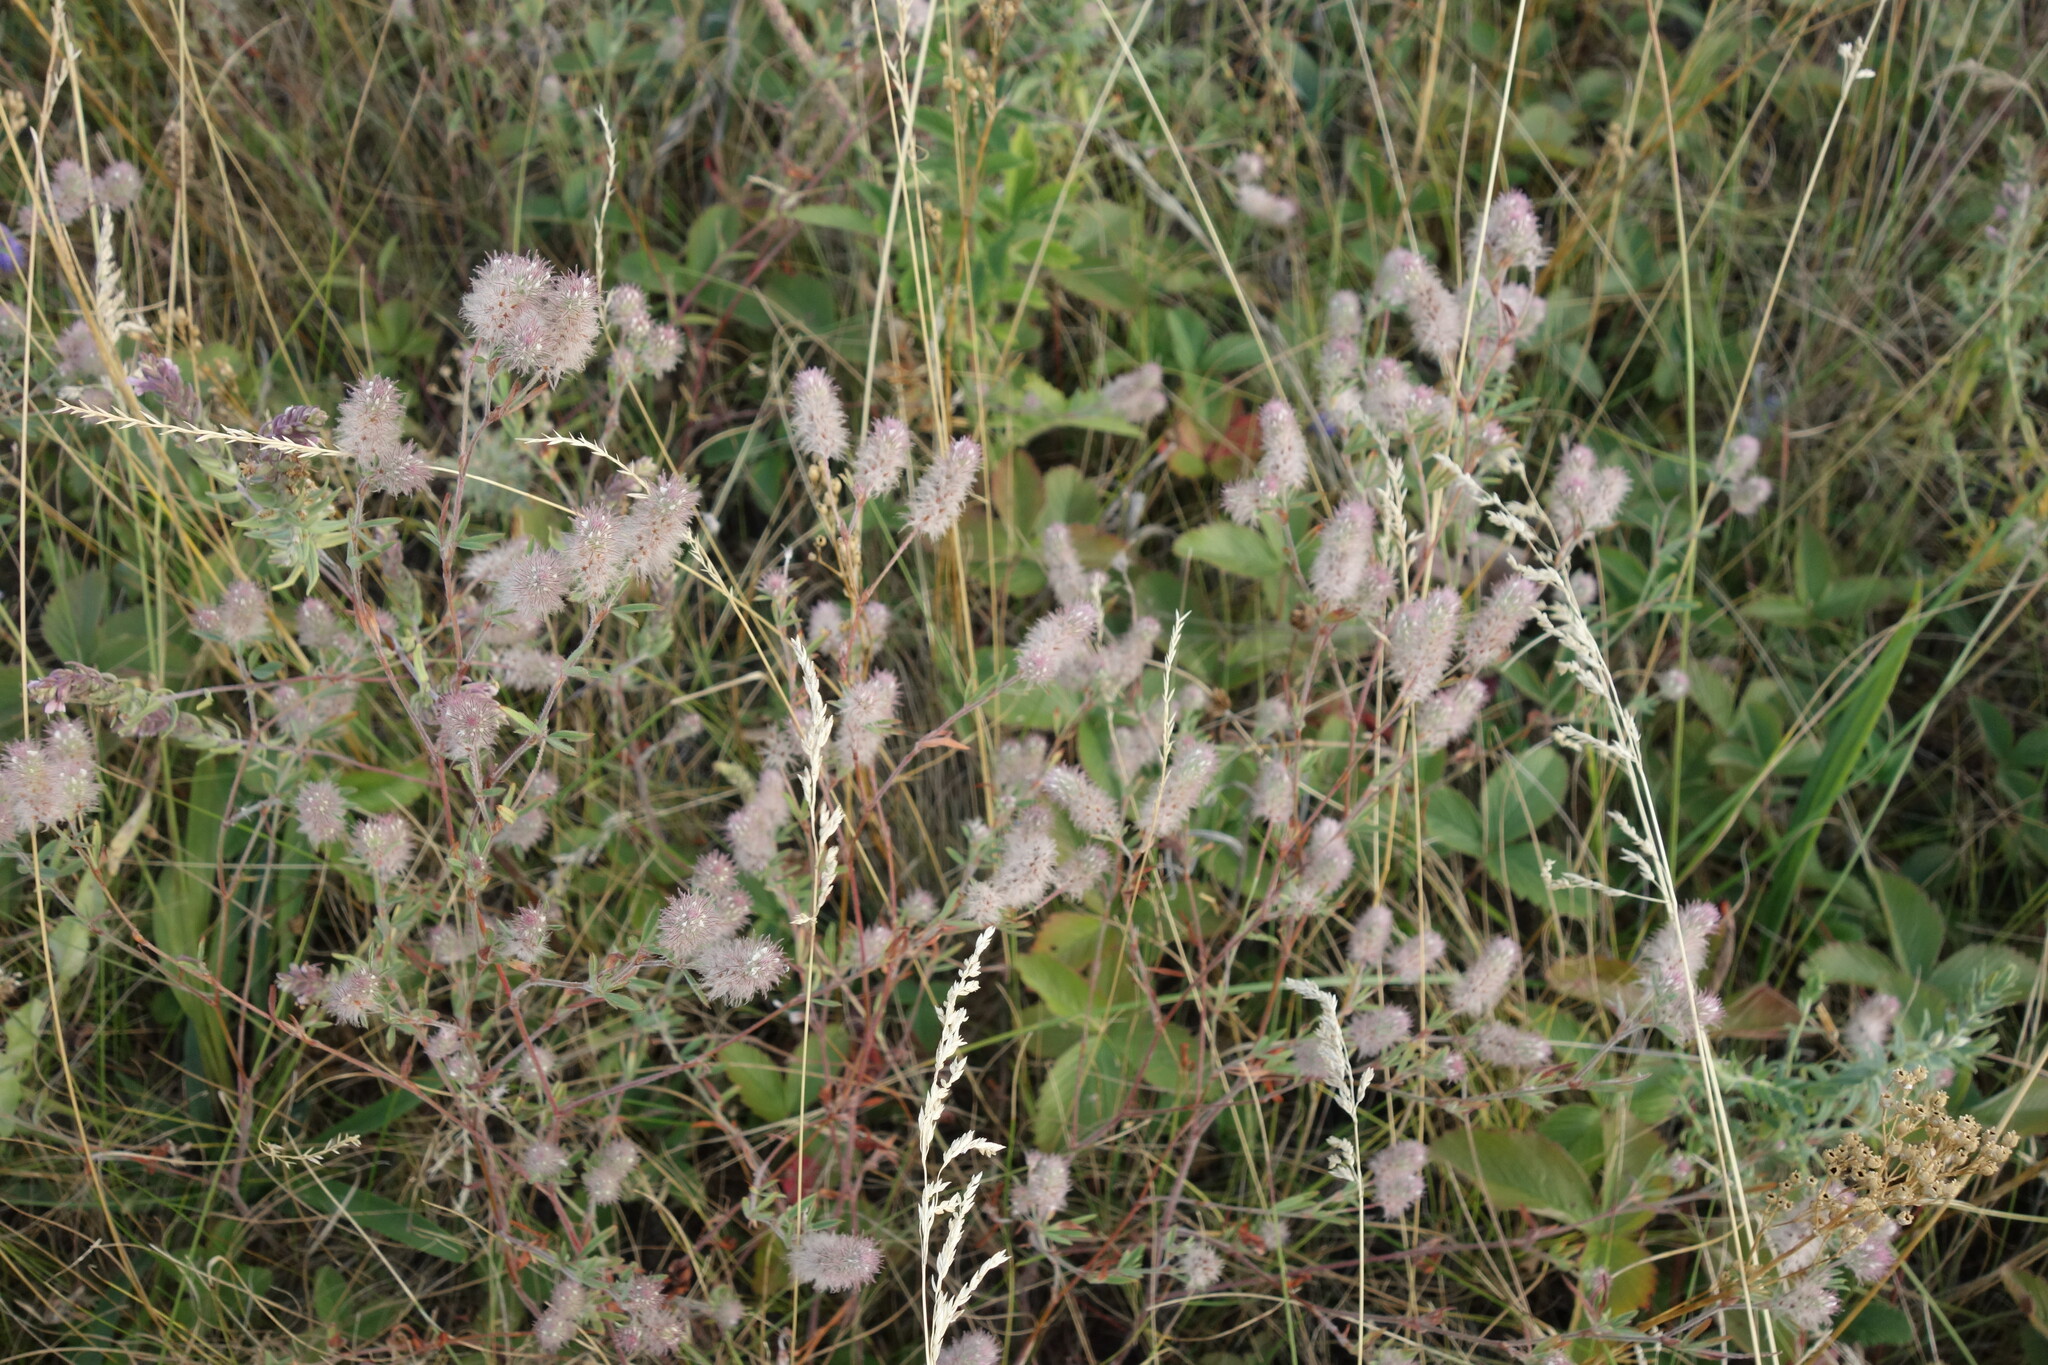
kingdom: Plantae
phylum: Tracheophyta
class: Magnoliopsida
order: Fabales
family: Fabaceae
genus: Trifolium
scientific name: Trifolium arvense
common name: Hare's-foot clover
